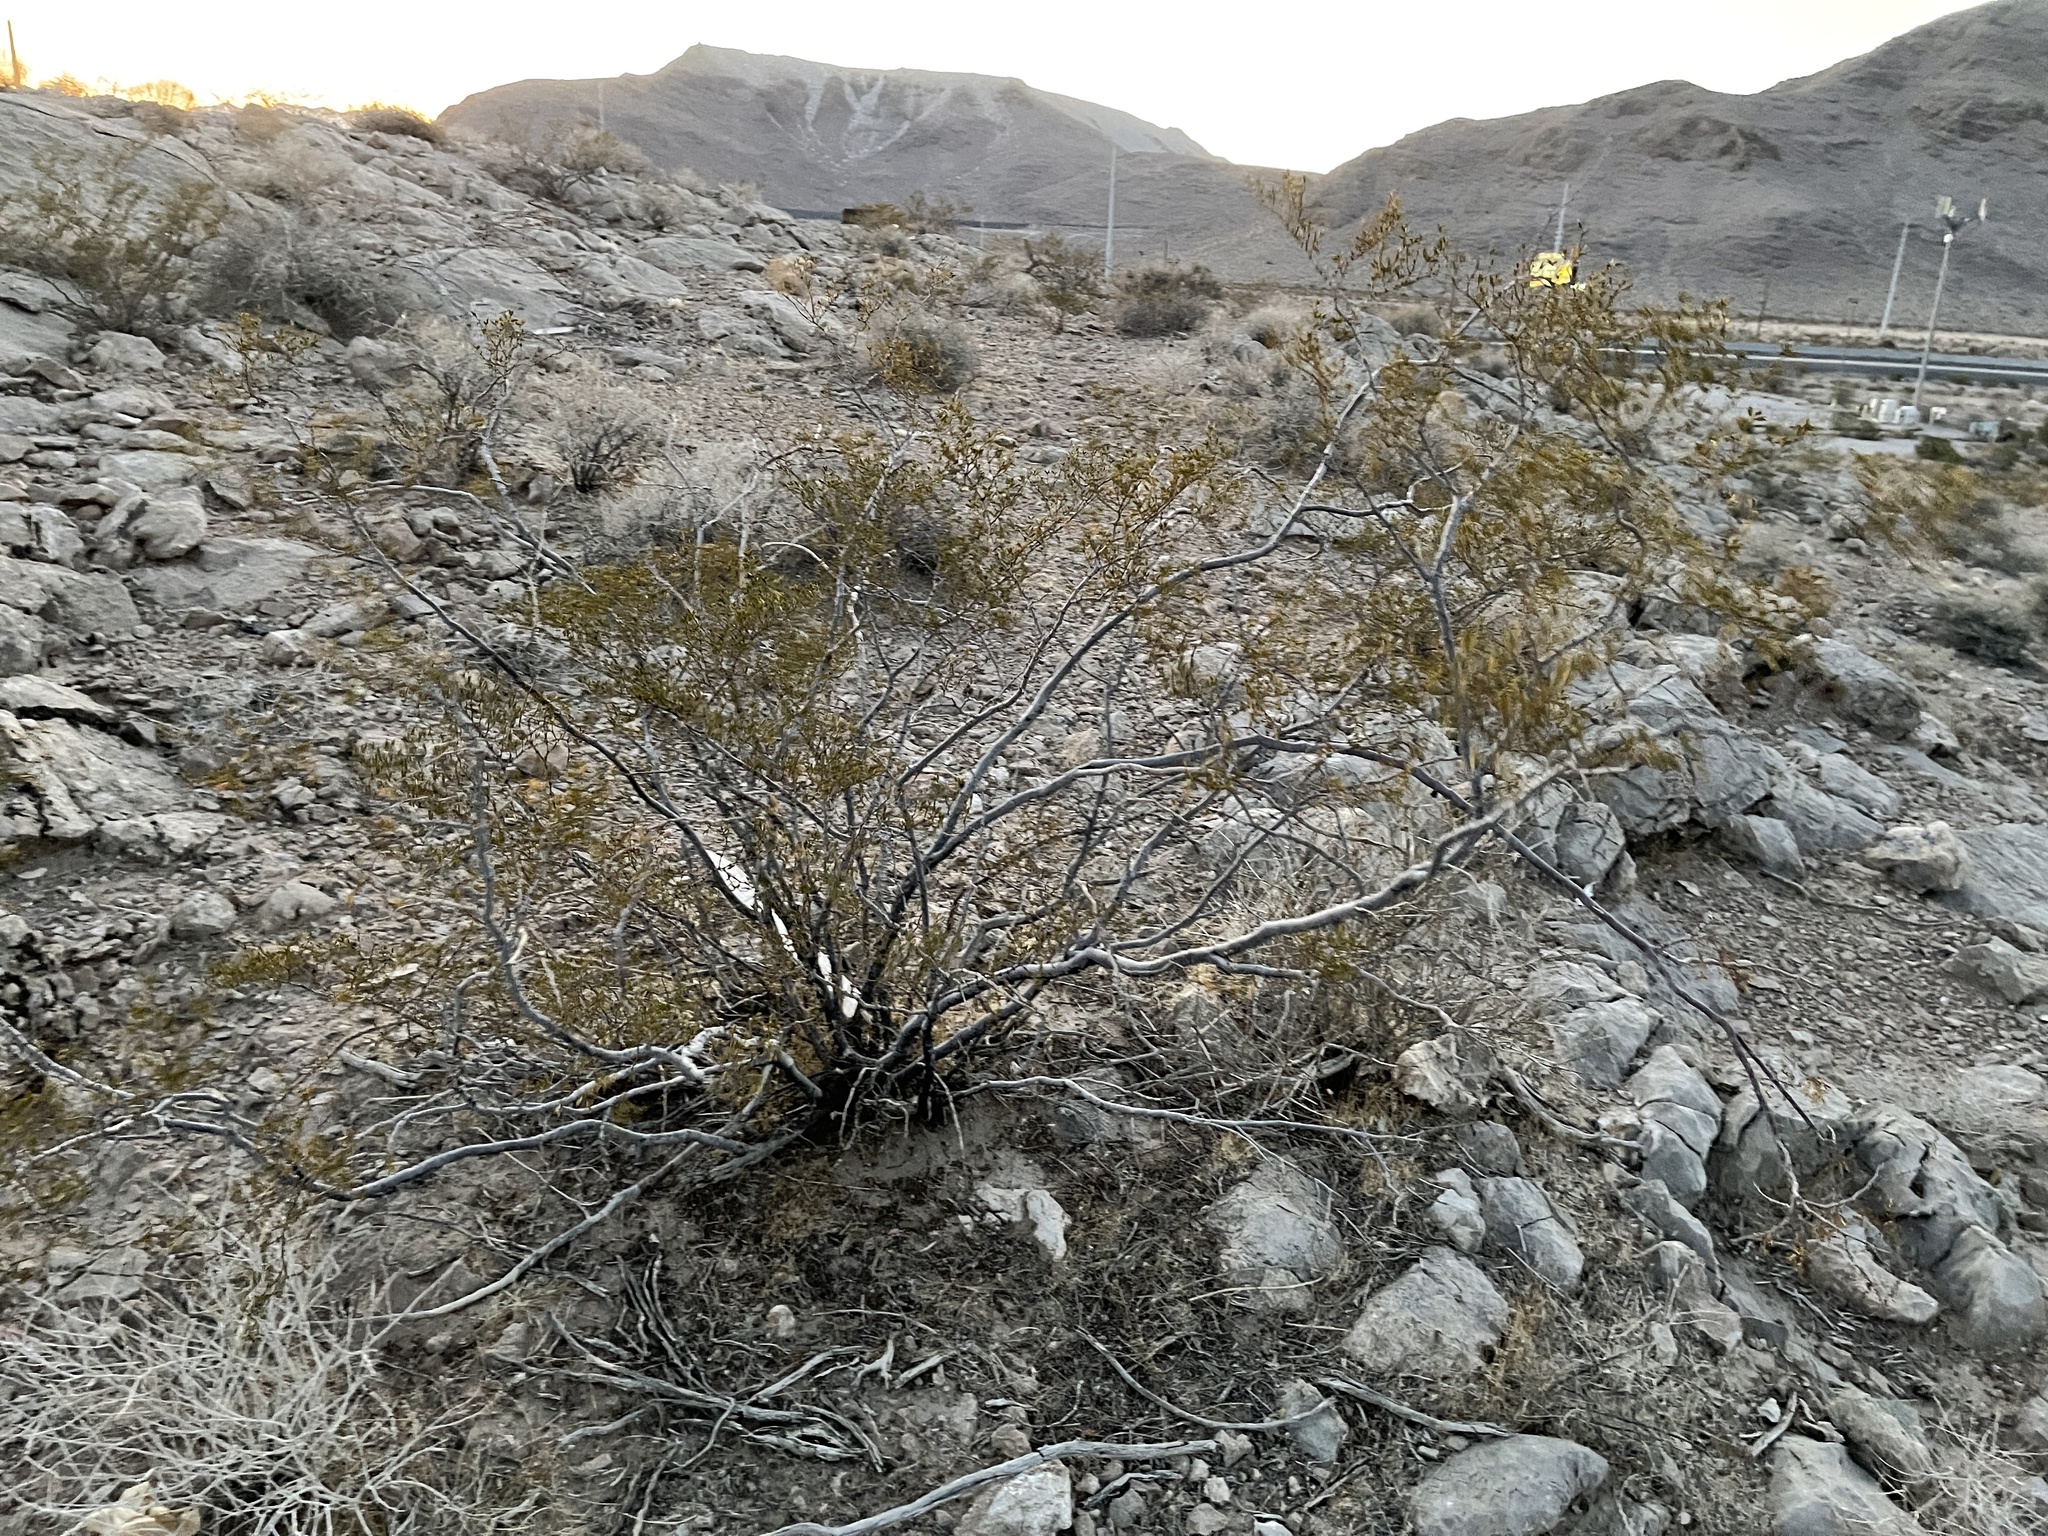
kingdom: Plantae
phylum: Tracheophyta
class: Magnoliopsida
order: Zygophyllales
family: Zygophyllaceae
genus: Larrea
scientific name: Larrea tridentata
